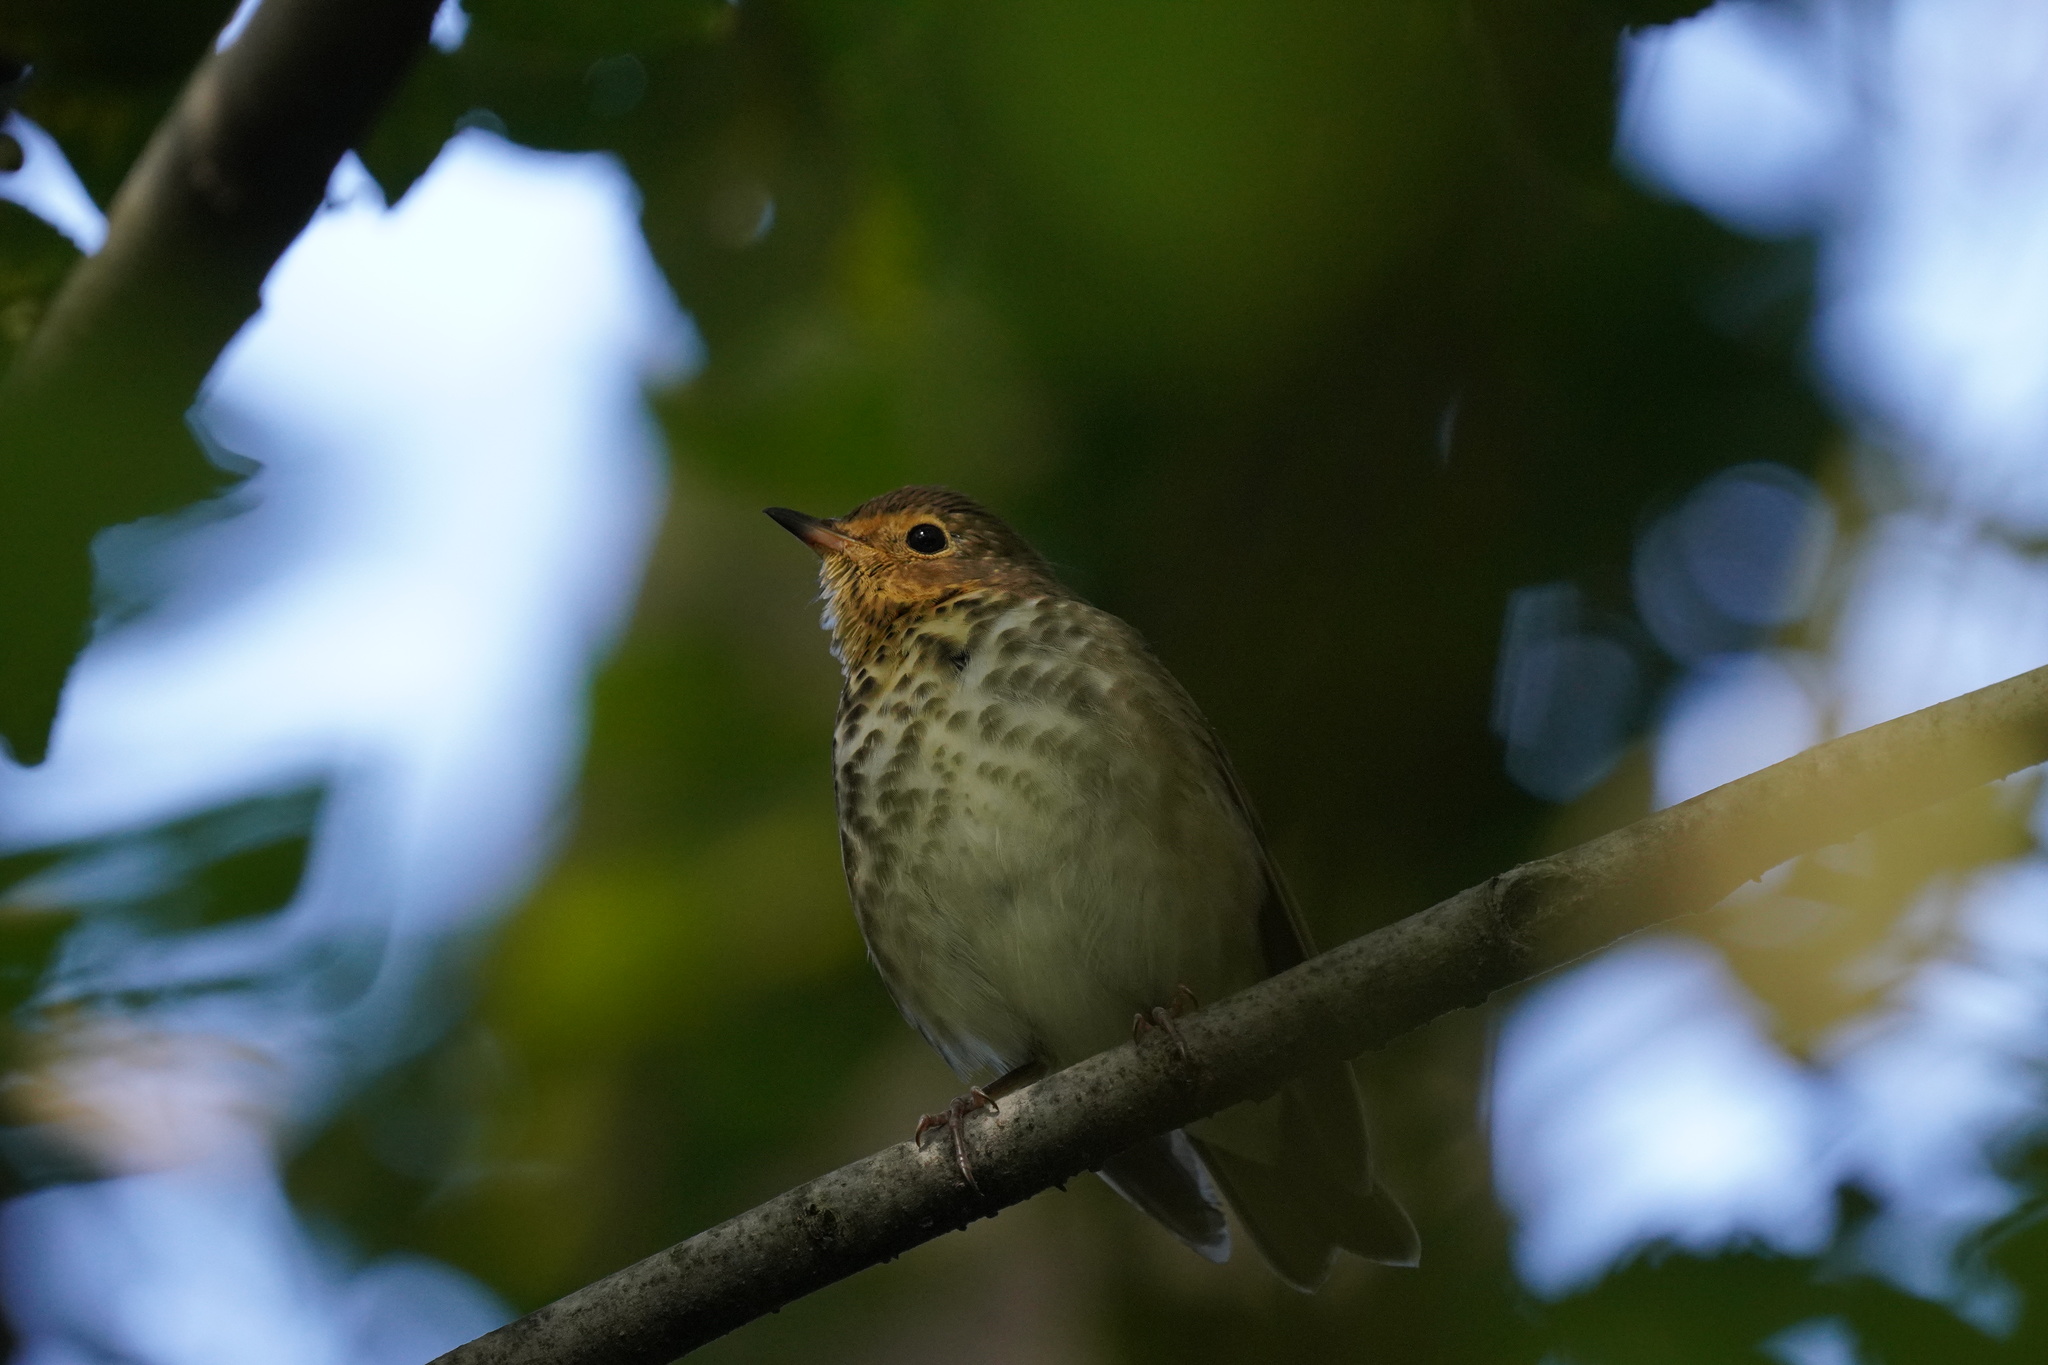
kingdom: Animalia
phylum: Chordata
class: Aves
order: Passeriformes
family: Turdidae
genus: Catharus
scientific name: Catharus ustulatus
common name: Swainson's thrush
